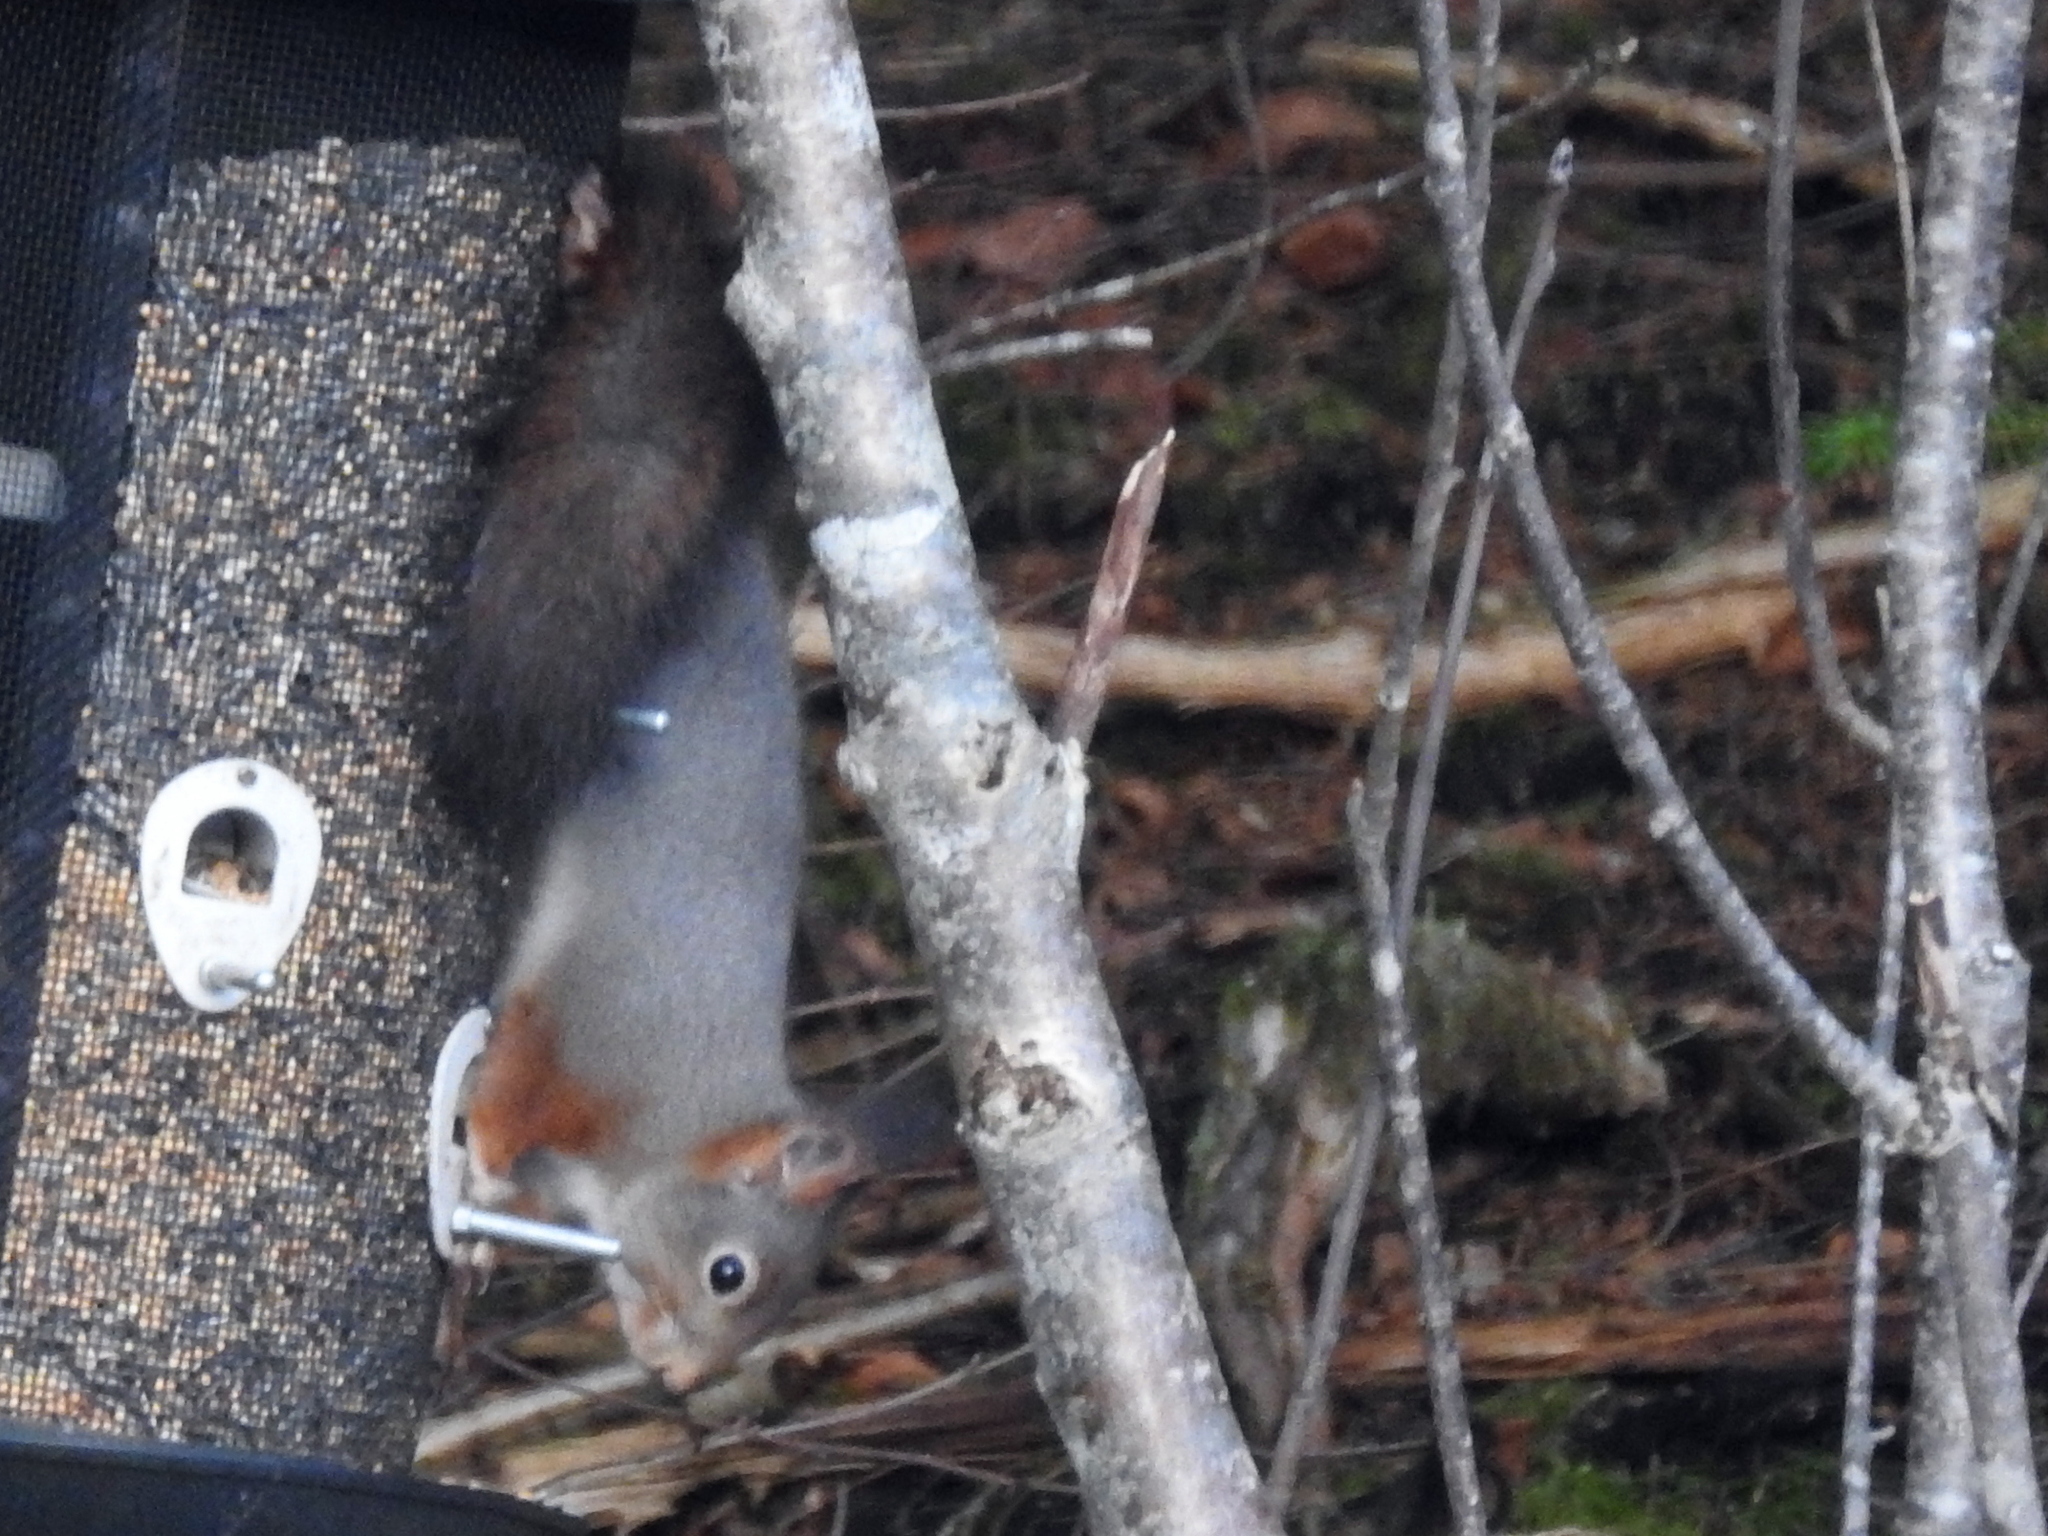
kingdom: Animalia
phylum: Chordata
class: Mammalia
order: Rodentia
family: Sciuridae
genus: Sciurus
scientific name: Sciurus vulgaris
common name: Eurasian red squirrel
